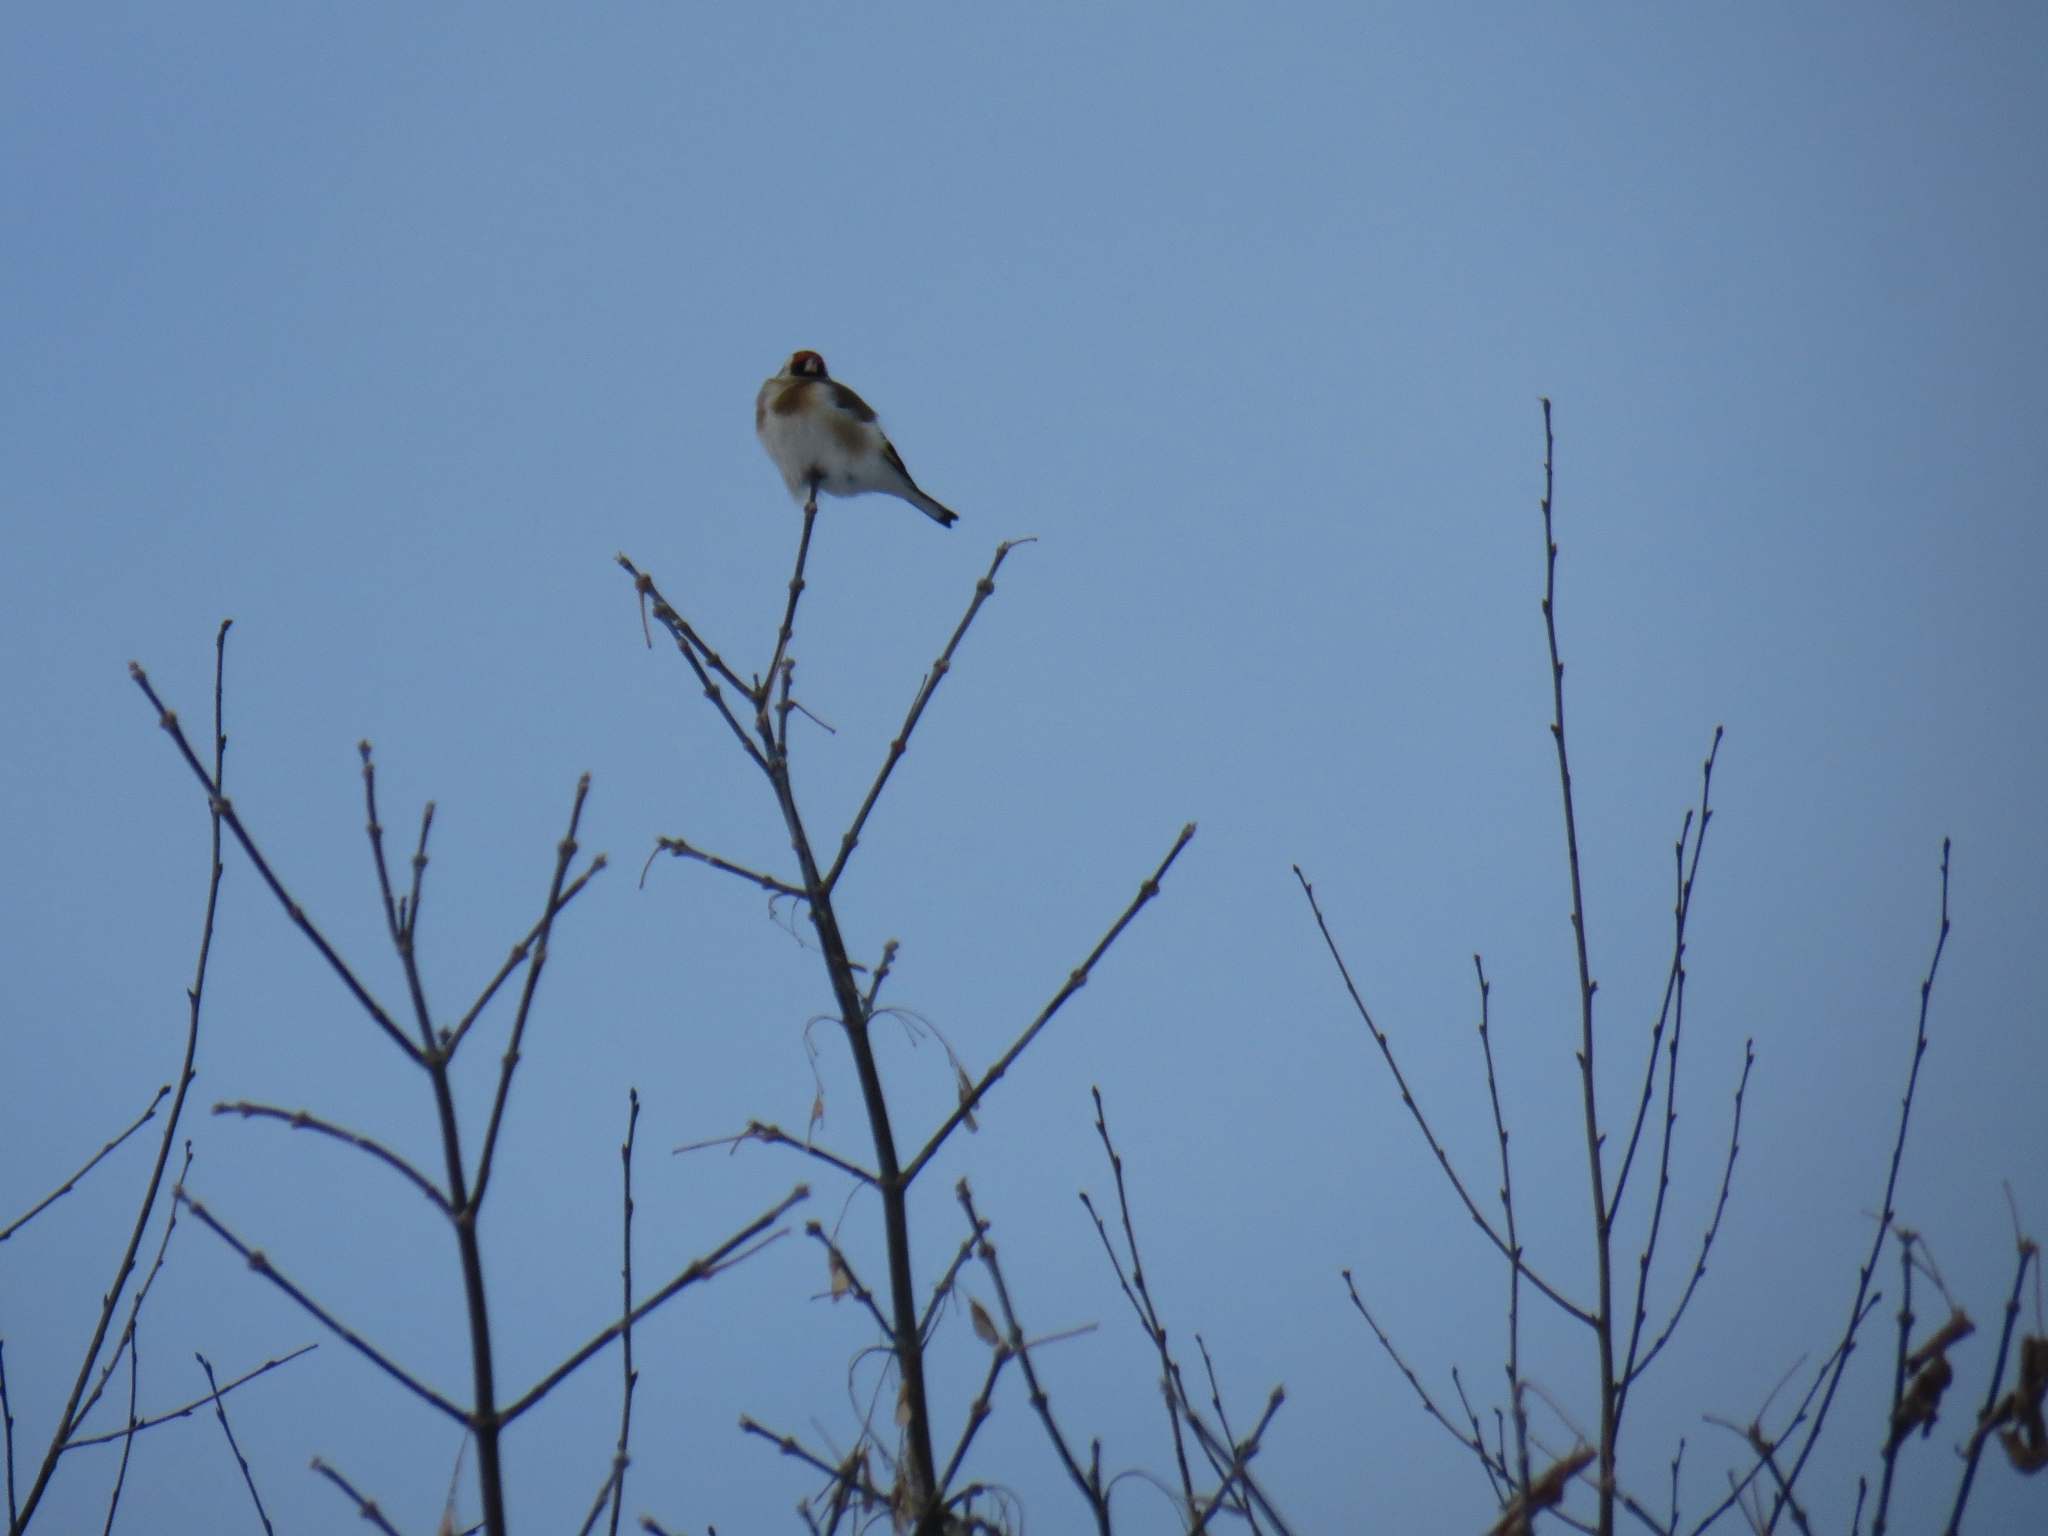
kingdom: Animalia
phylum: Chordata
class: Aves
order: Passeriformes
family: Fringillidae
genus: Carduelis
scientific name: Carduelis carduelis
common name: European goldfinch
